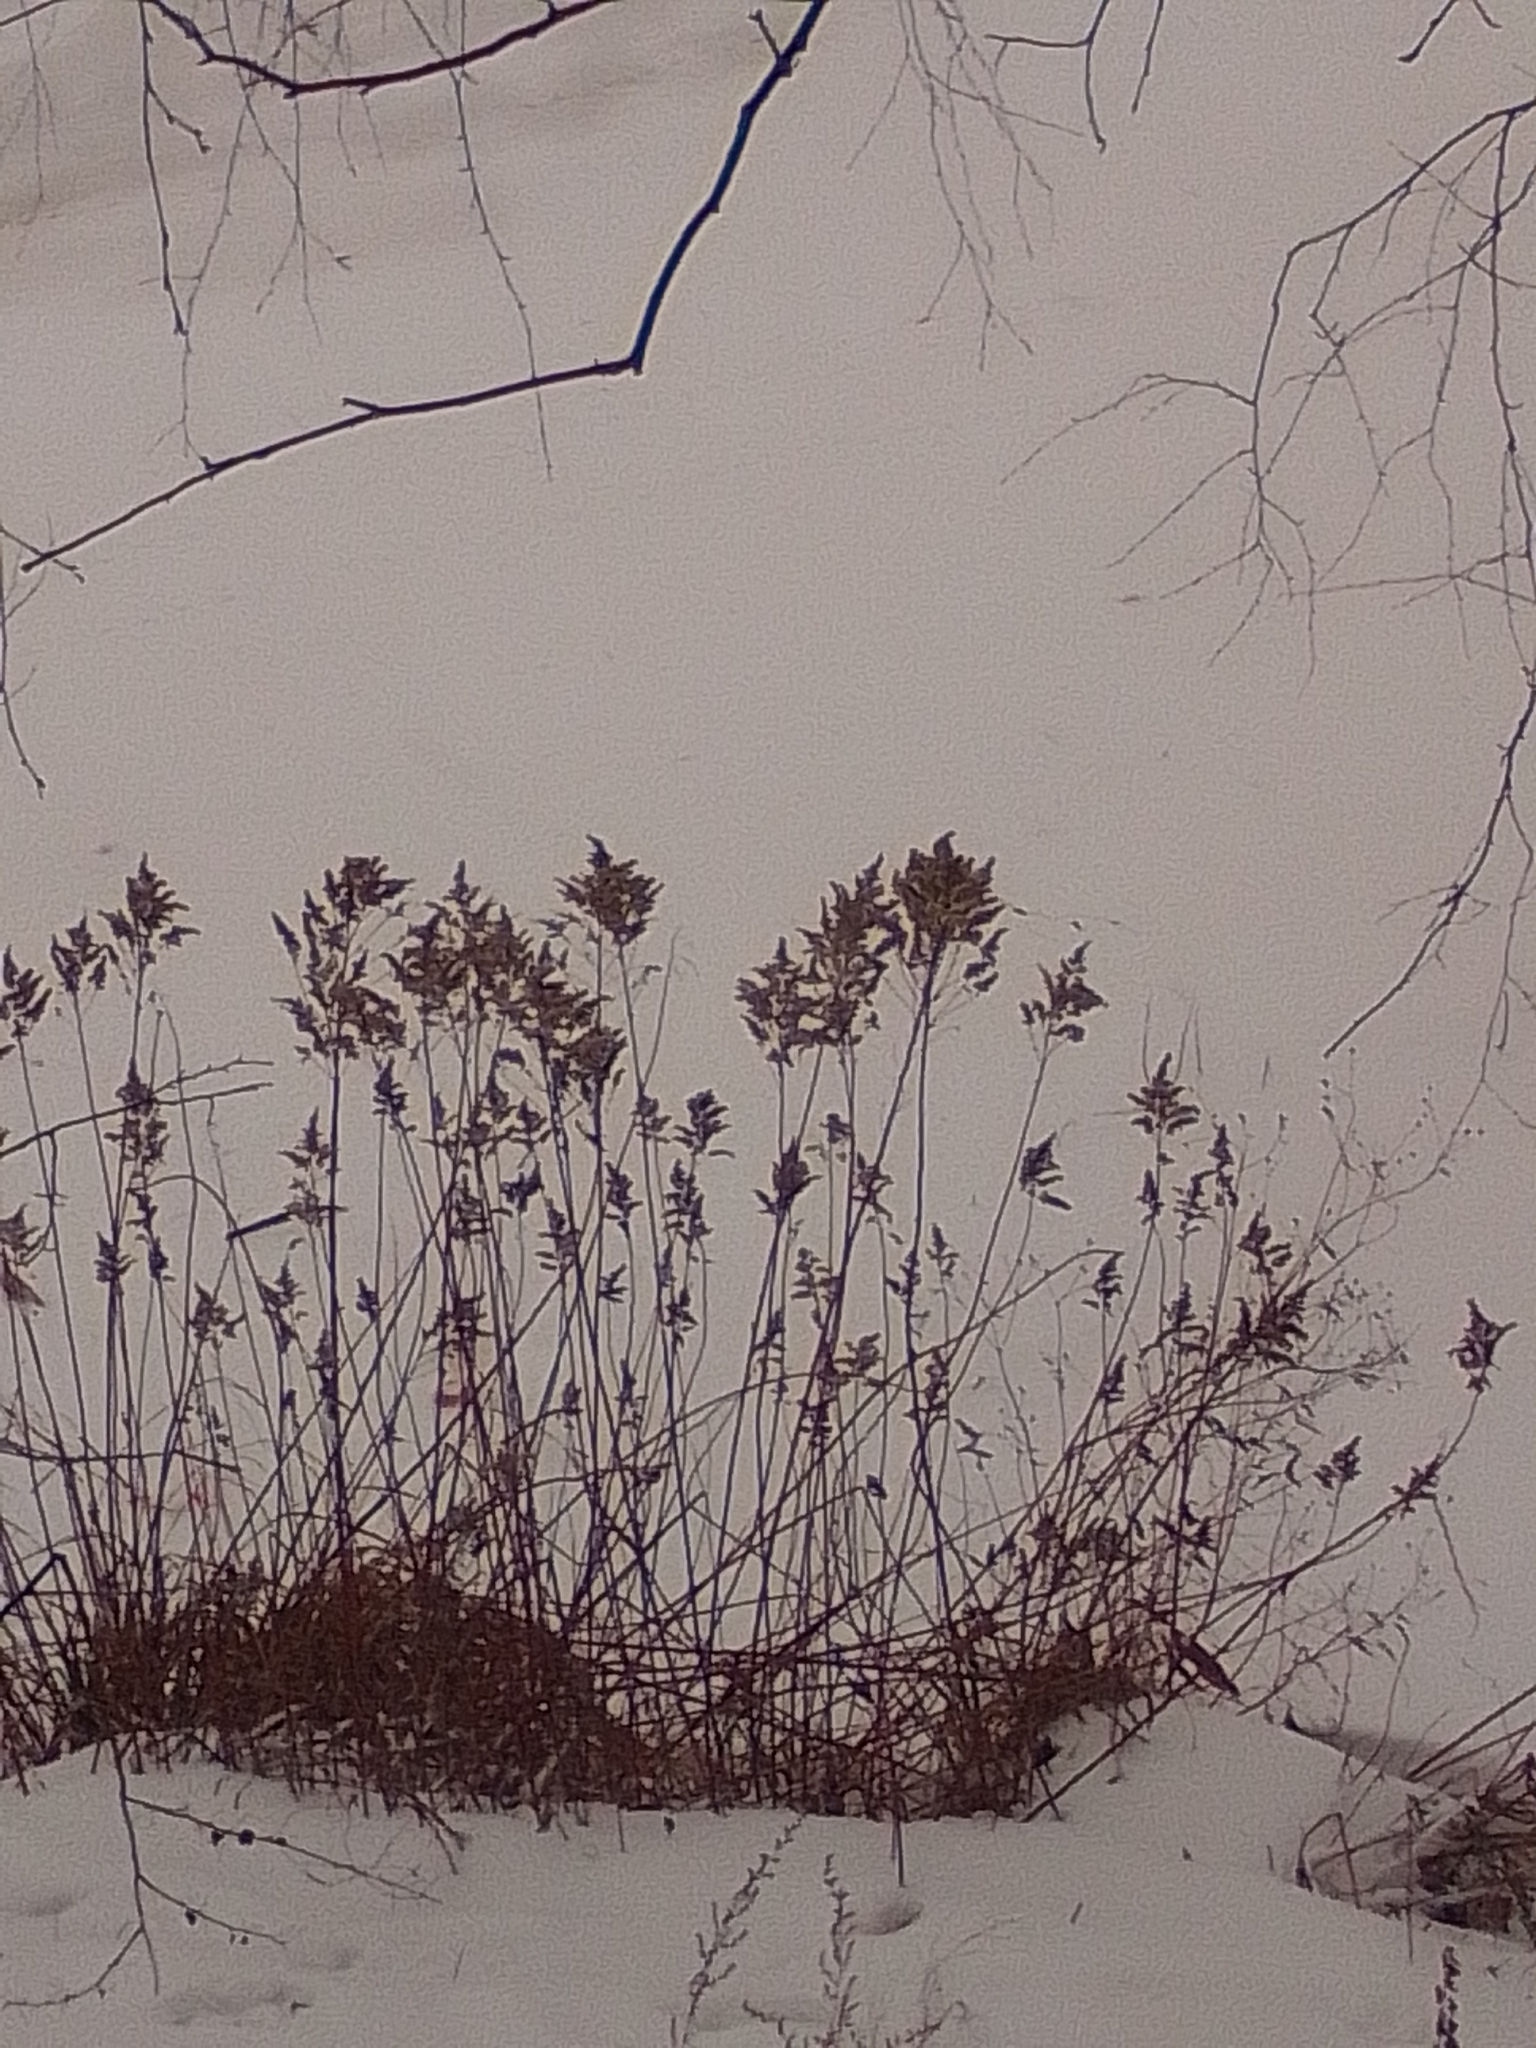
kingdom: Plantae
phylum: Tracheophyta
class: Magnoliopsida
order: Asterales
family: Asteraceae
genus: Solidago
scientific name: Solidago gigantea
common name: Giant goldenrod
